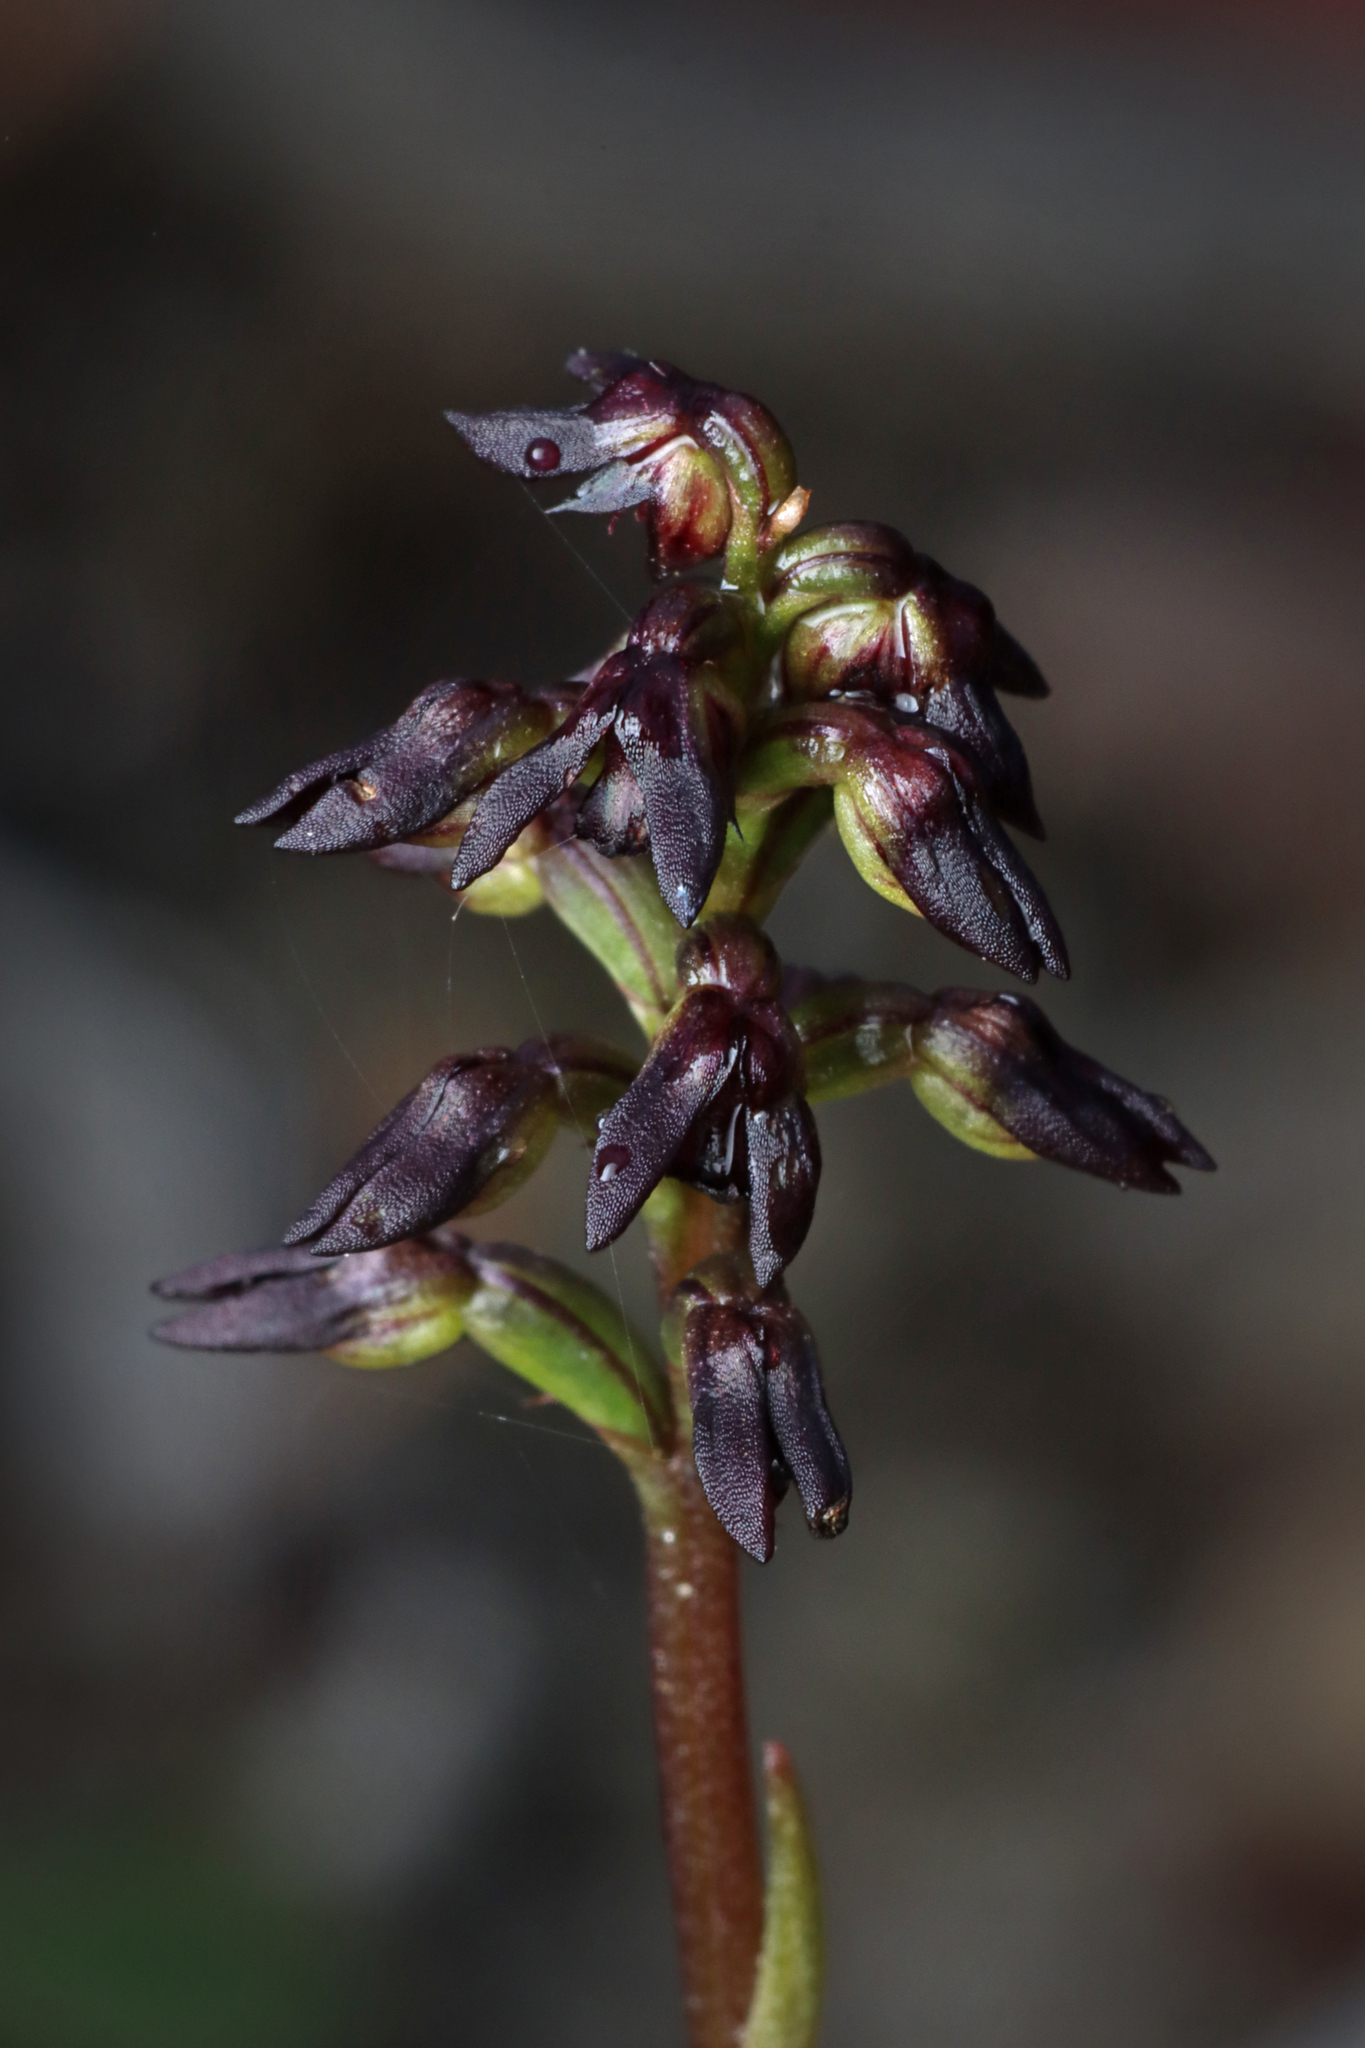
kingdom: Plantae
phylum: Tracheophyta
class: Liliopsida
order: Asparagales
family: Orchidaceae
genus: Genoplesium
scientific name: Genoplesium rufum
